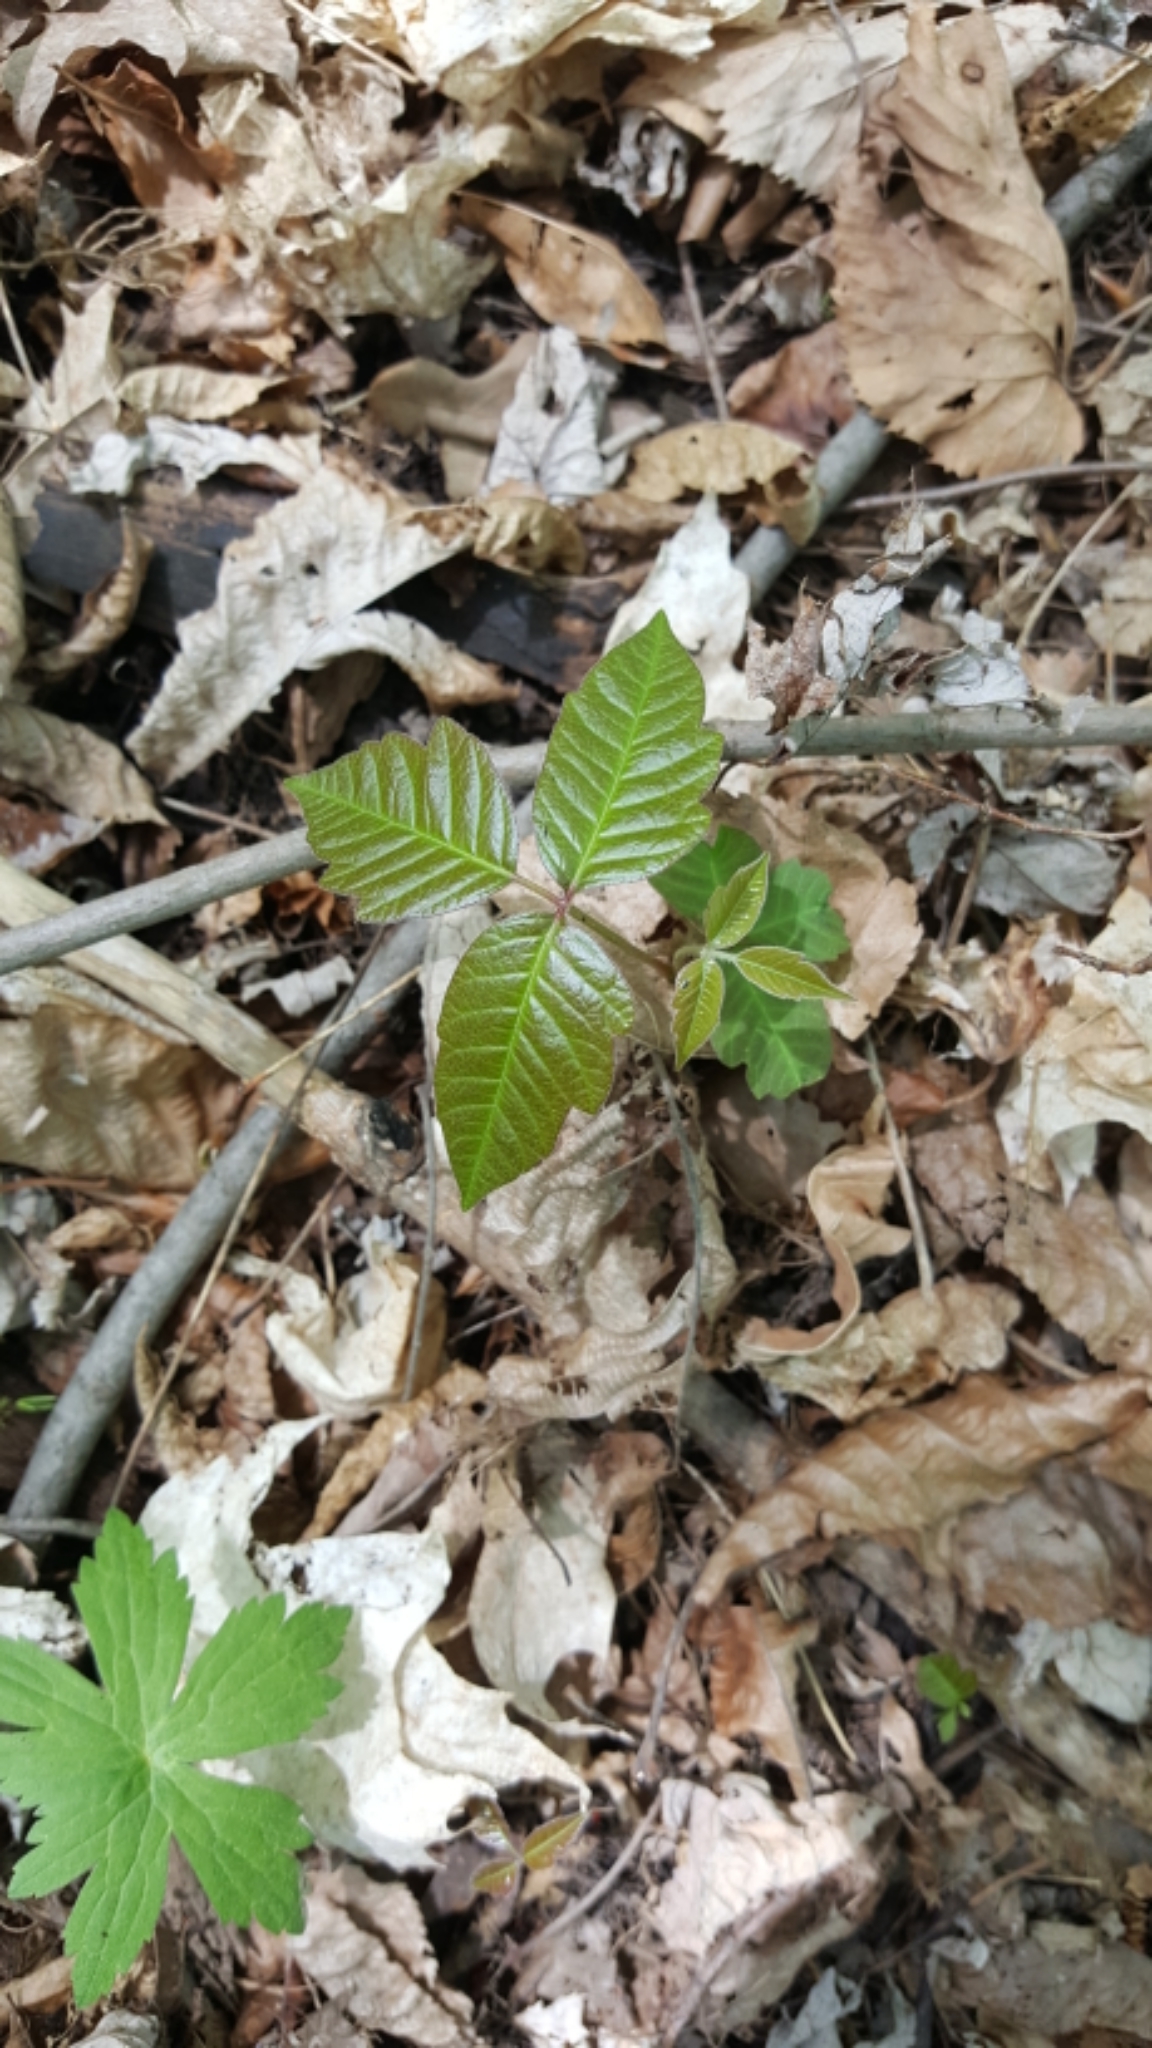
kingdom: Plantae
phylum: Tracheophyta
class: Magnoliopsida
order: Sapindales
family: Anacardiaceae
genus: Toxicodendron
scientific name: Toxicodendron
